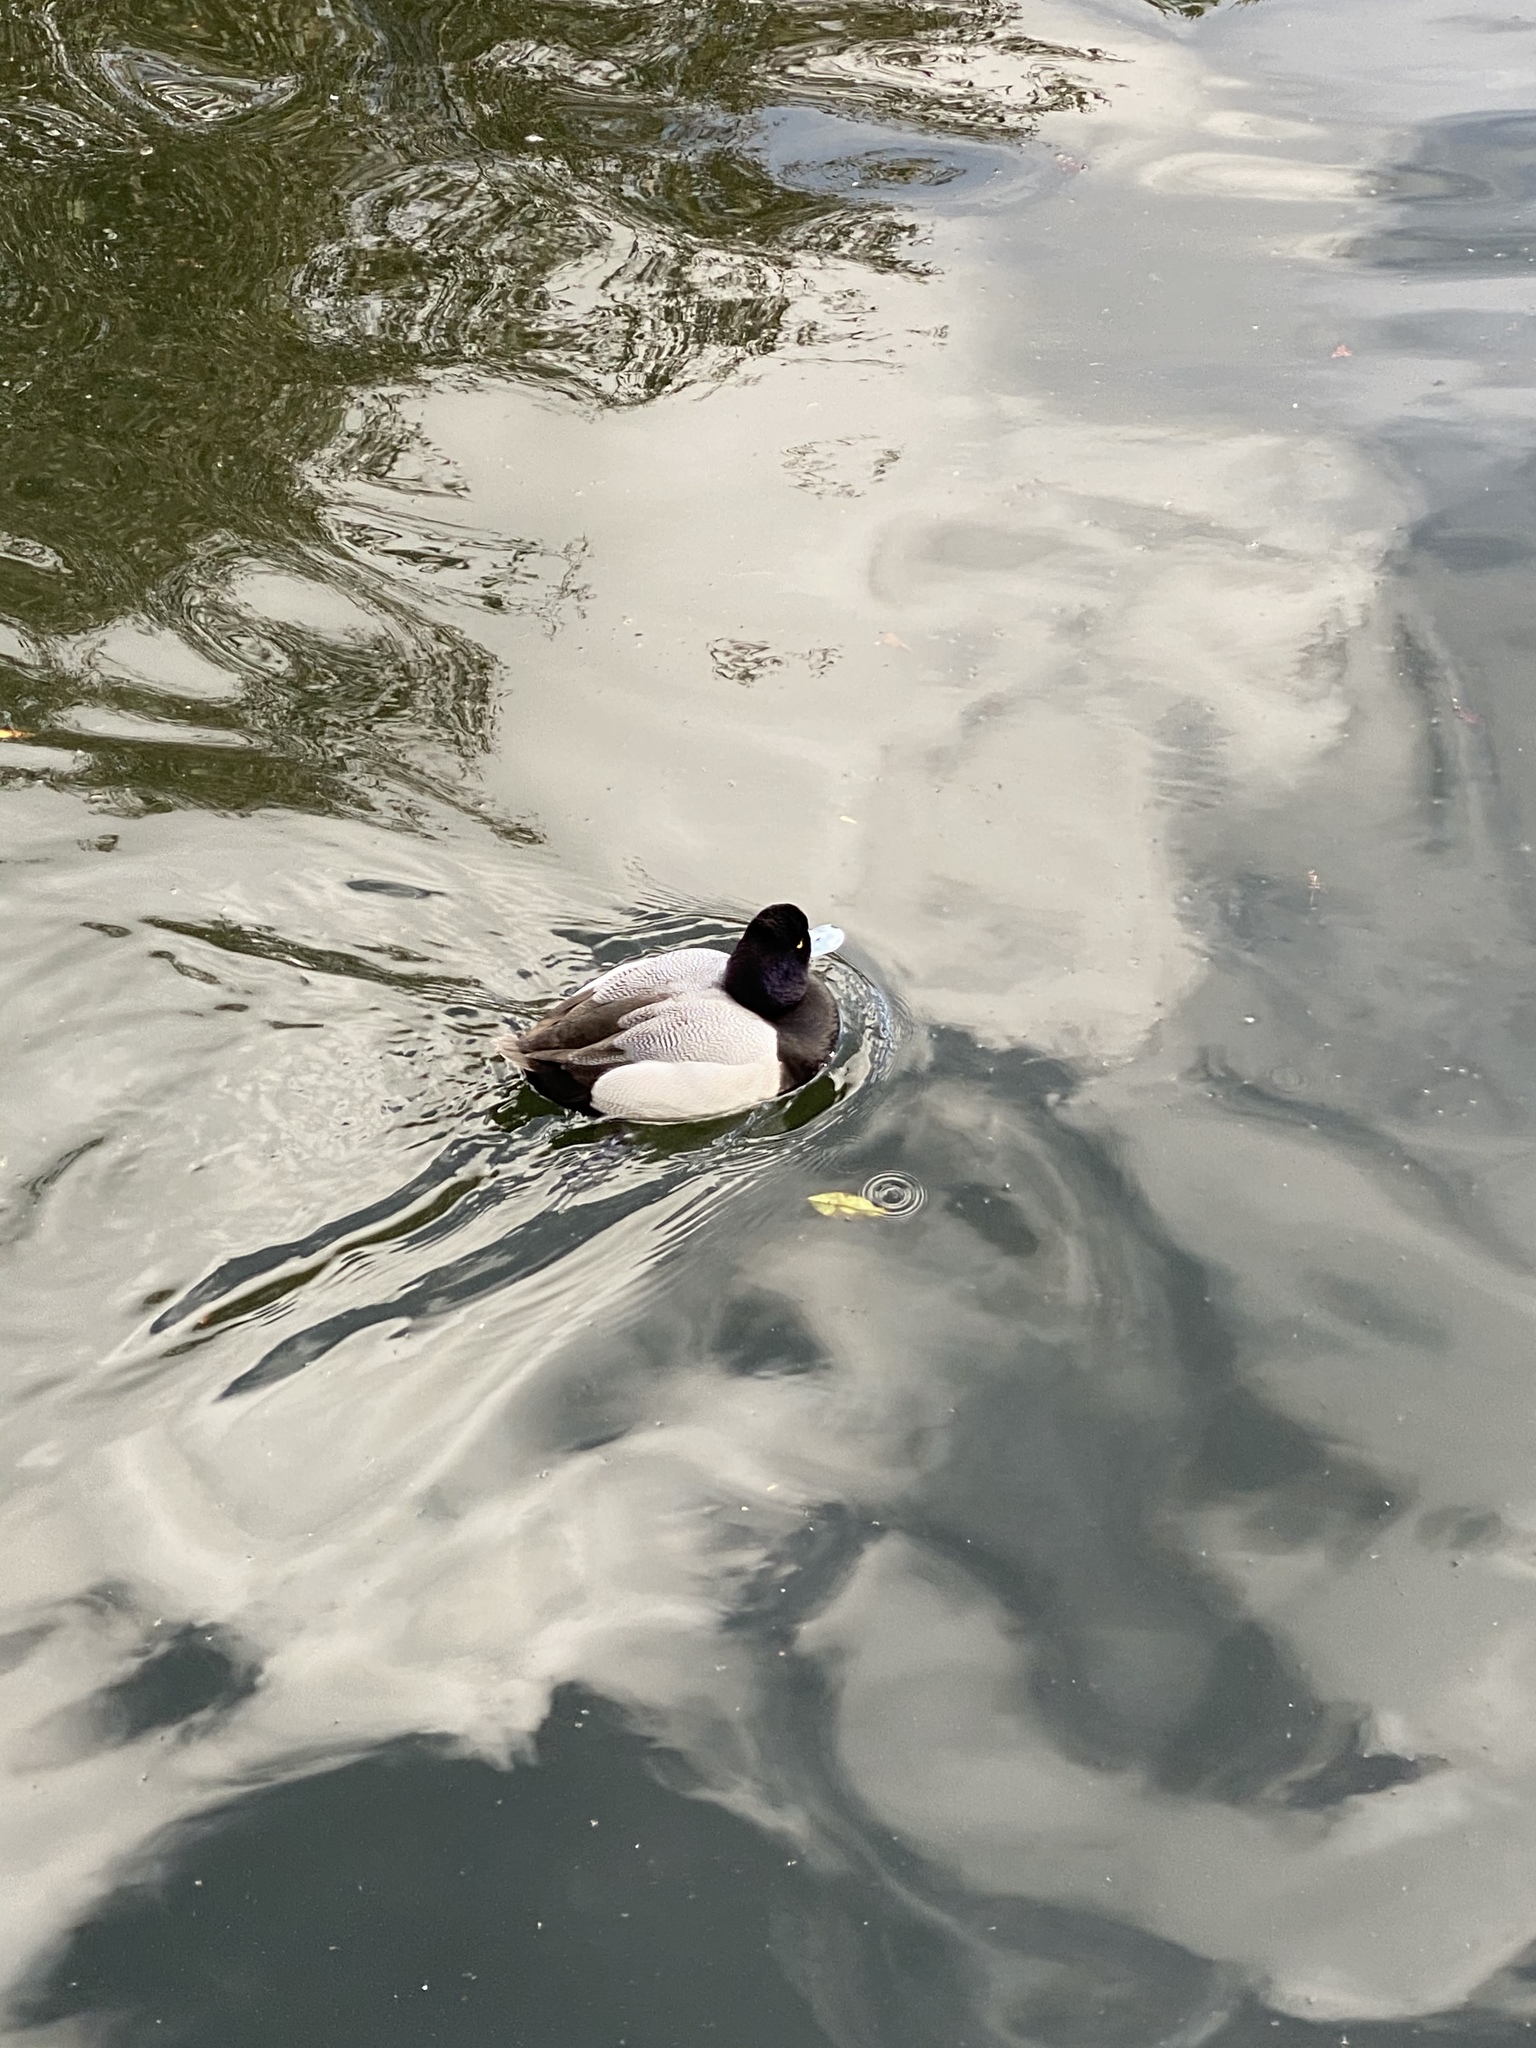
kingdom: Animalia
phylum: Chordata
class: Aves
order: Anseriformes
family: Anatidae
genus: Aythya
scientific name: Aythya affinis
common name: Lesser scaup
